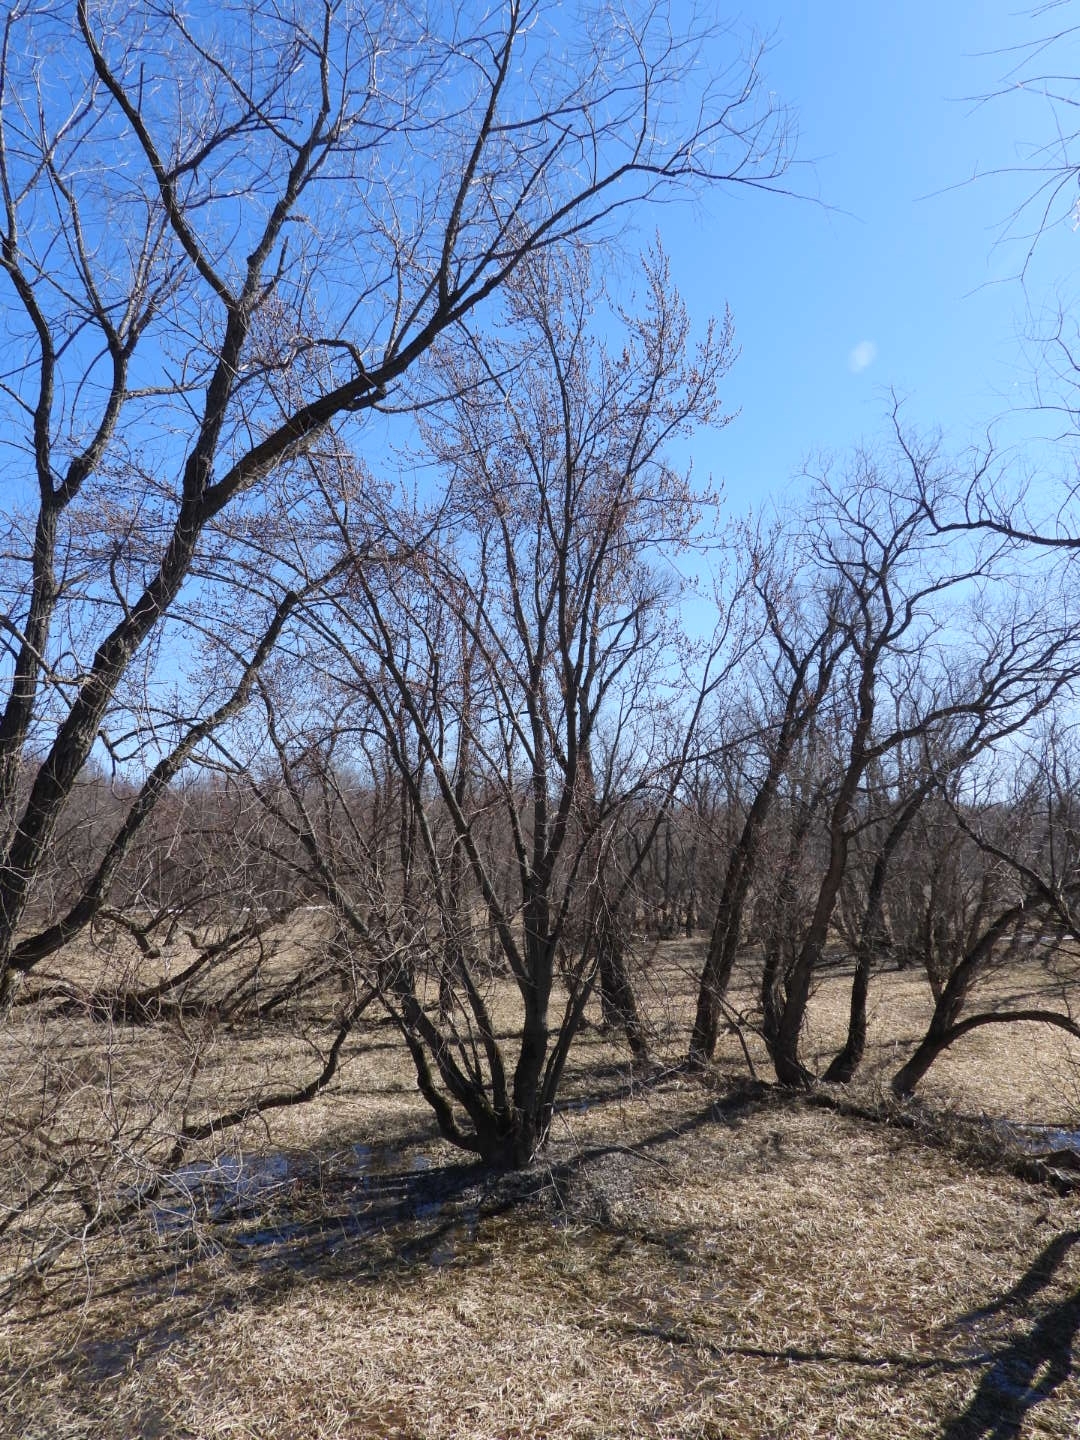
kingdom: Plantae
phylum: Tracheophyta
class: Magnoliopsida
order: Sapindales
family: Sapindaceae
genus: Acer
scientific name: Acer saccharinum
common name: Silver maple
